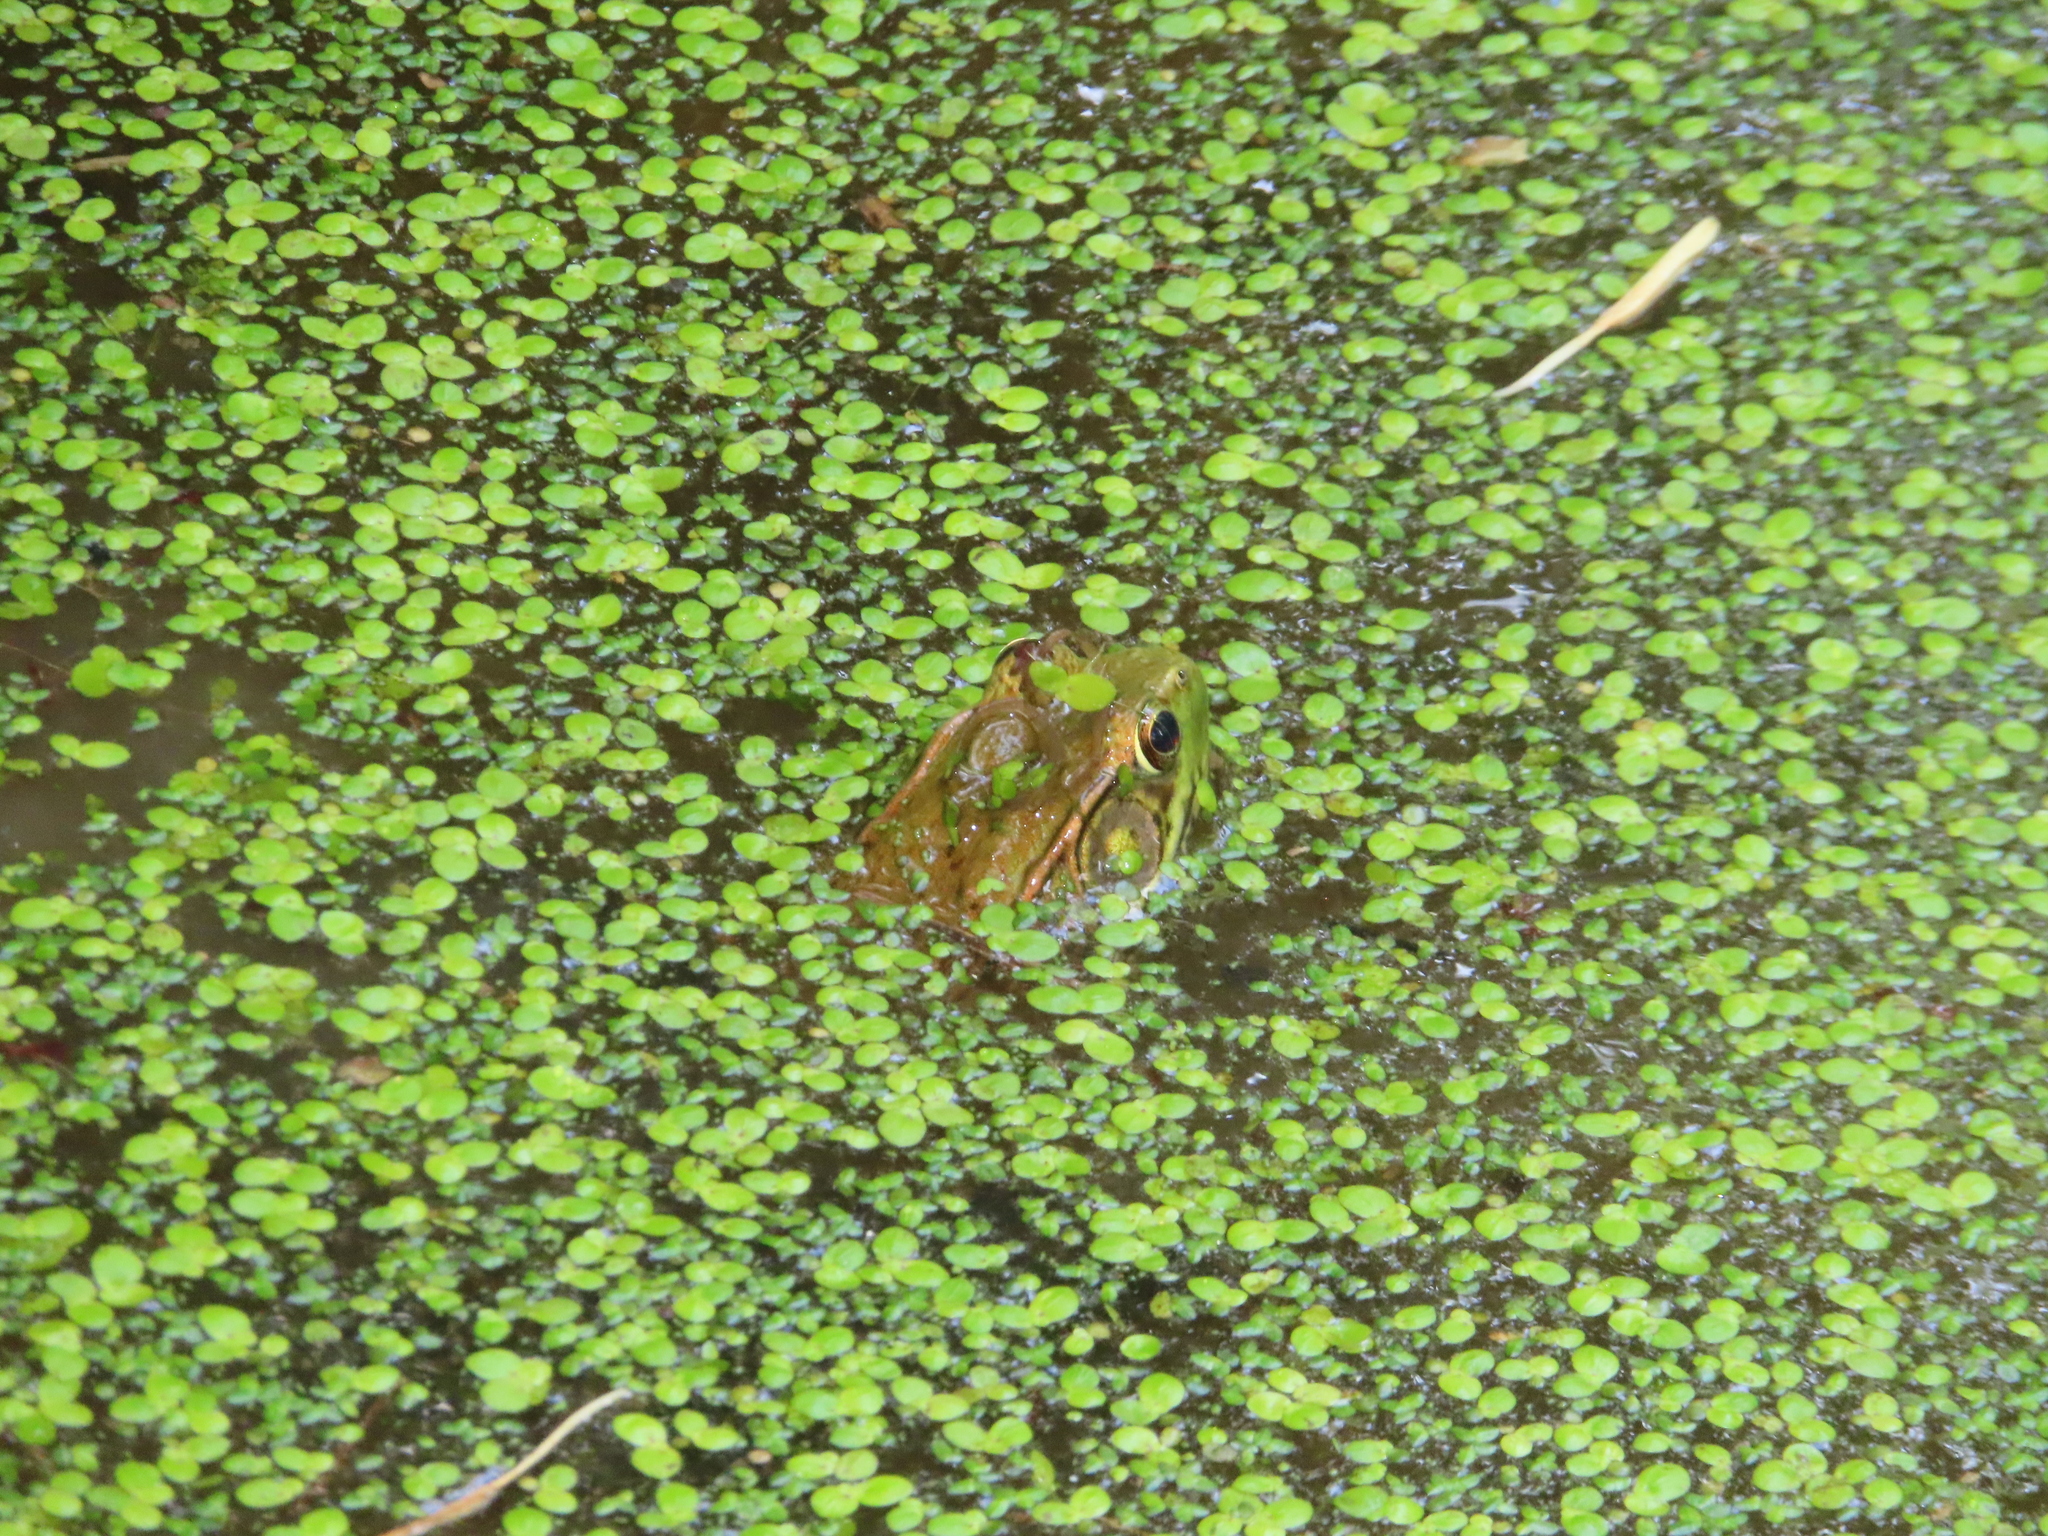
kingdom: Animalia
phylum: Chordata
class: Amphibia
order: Anura
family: Ranidae
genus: Lithobates
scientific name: Lithobates clamitans
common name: Green frog
